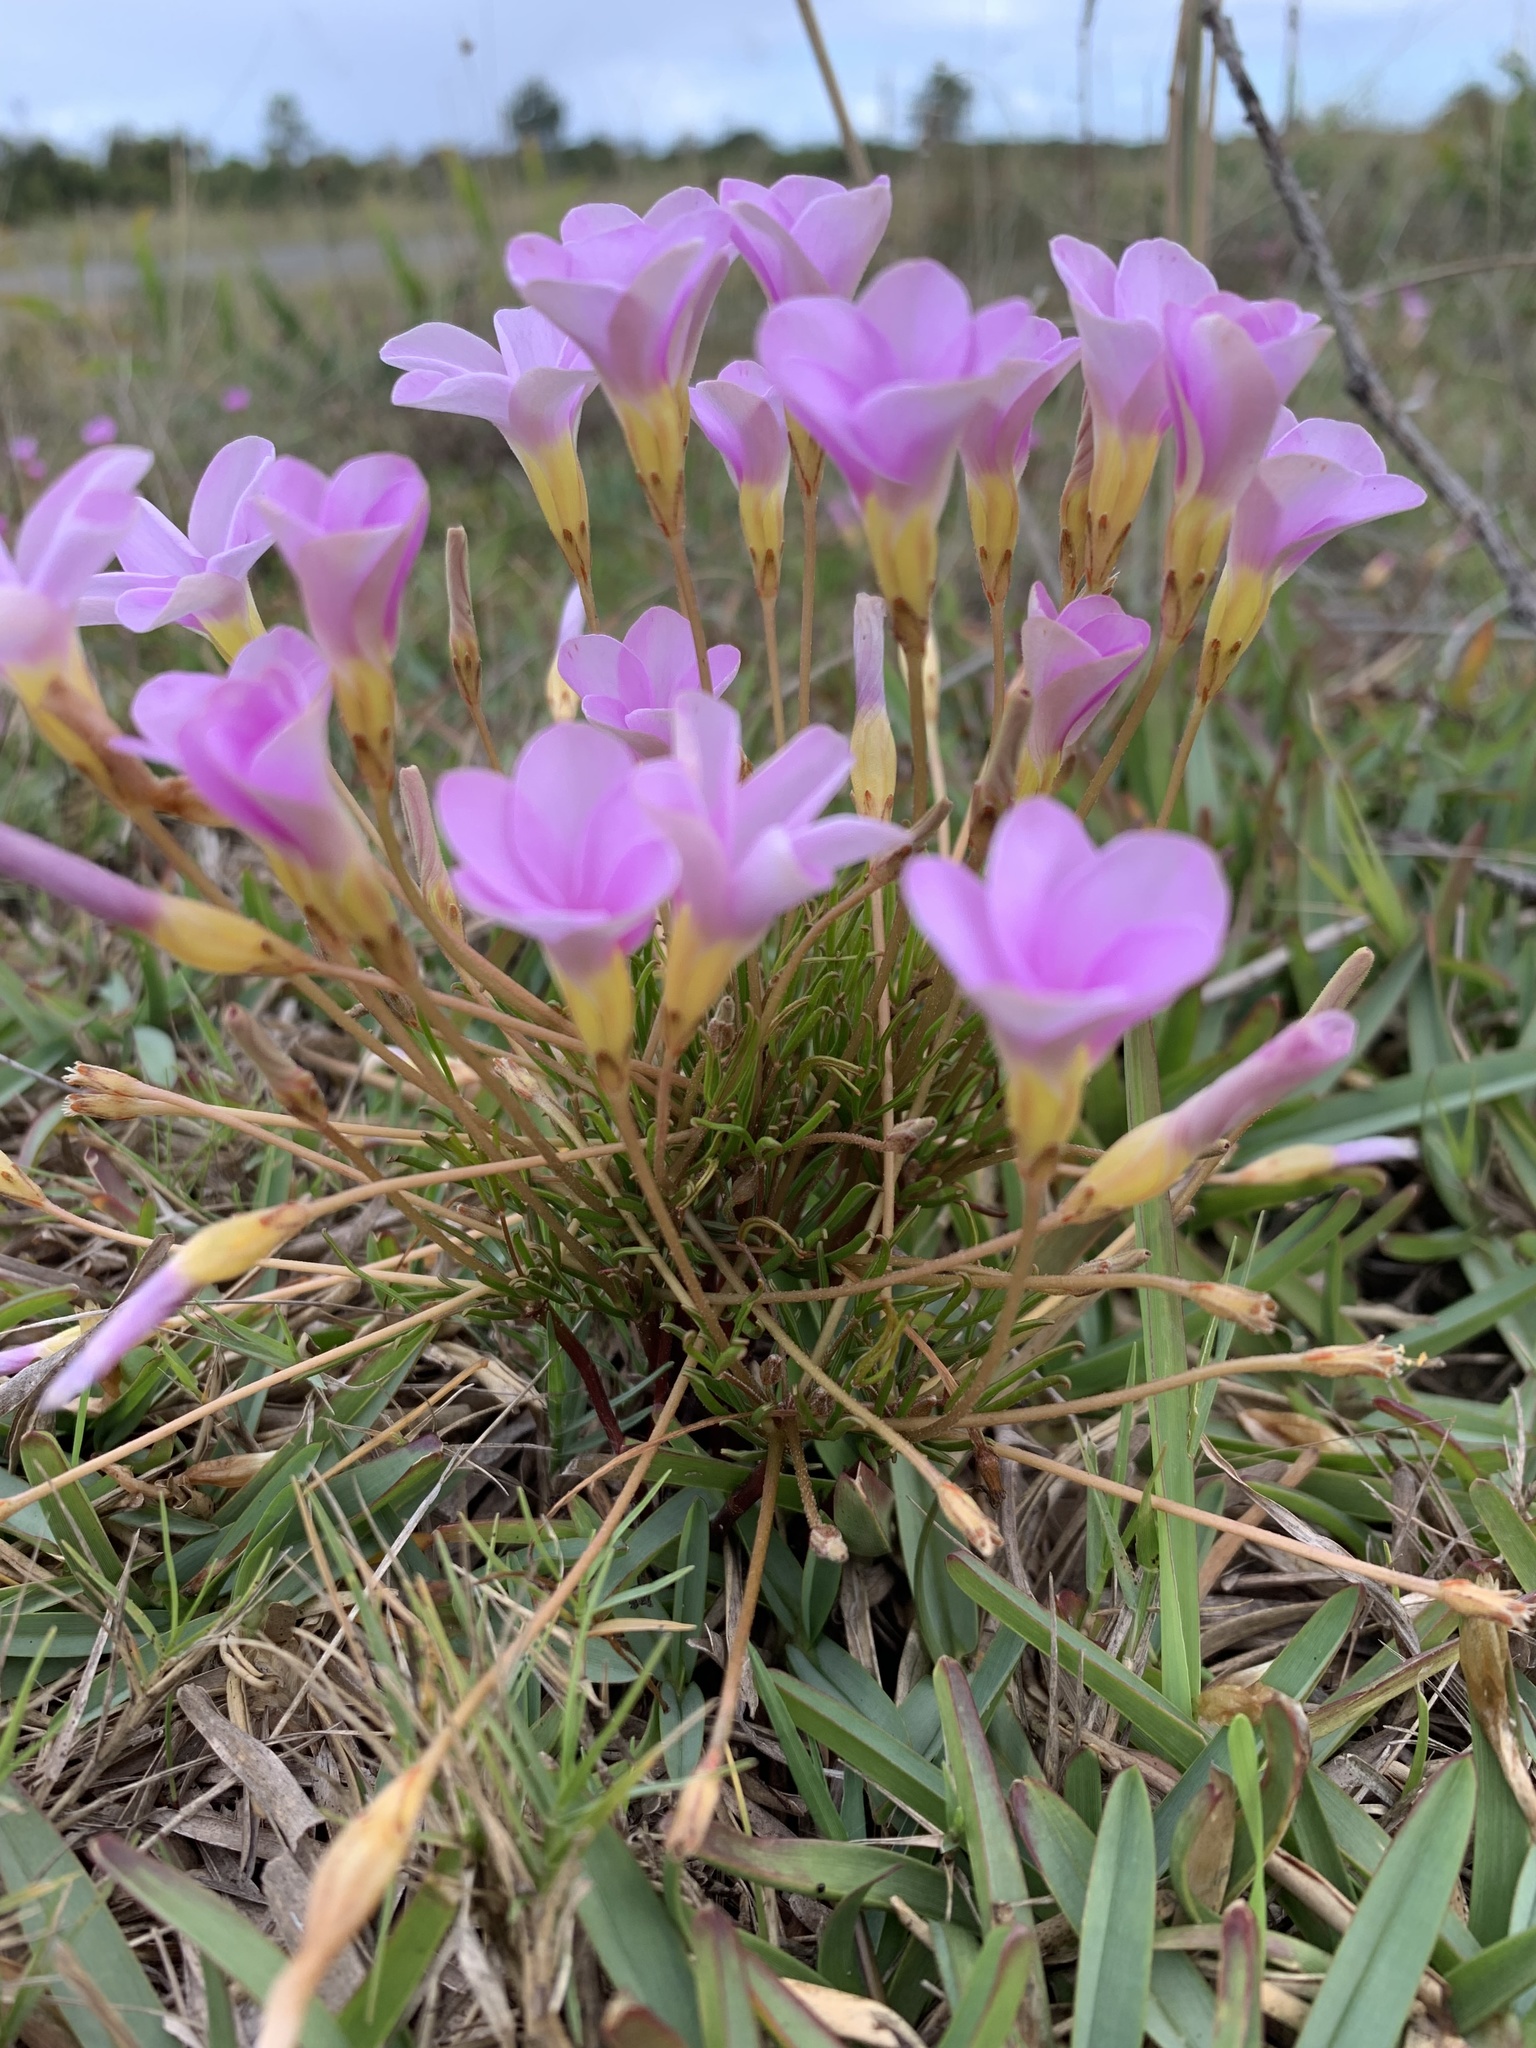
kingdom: Plantae
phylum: Tracheophyta
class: Magnoliopsida
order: Oxalidales
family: Oxalidaceae
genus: Oxalis
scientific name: Oxalis polyphylla
